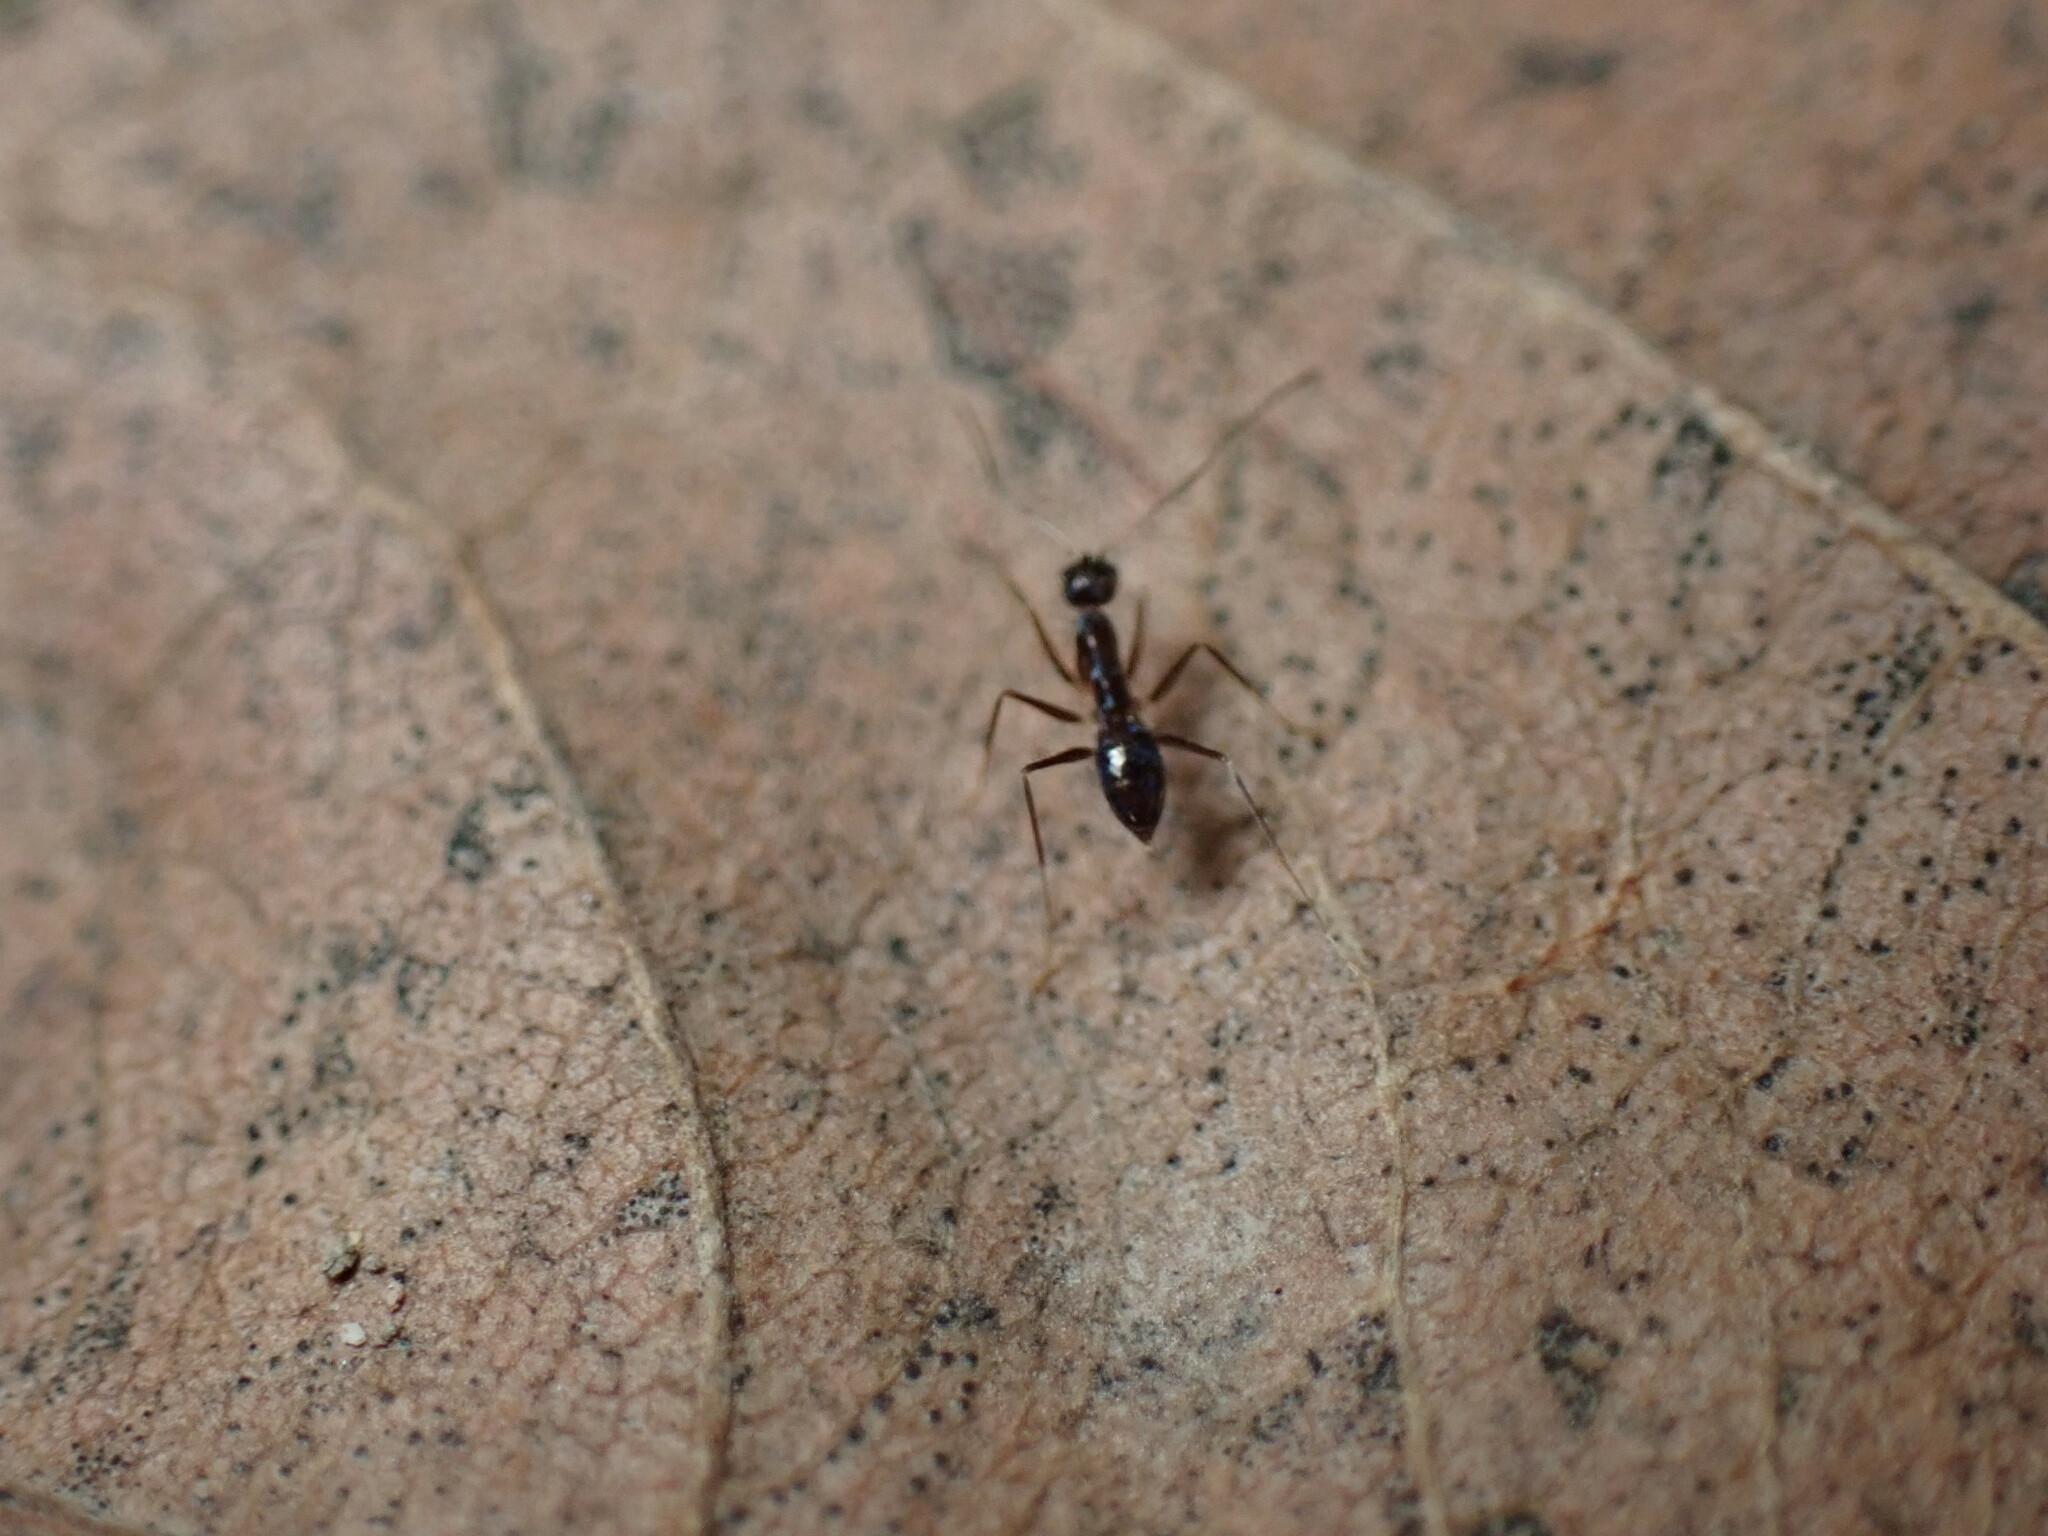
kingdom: Animalia
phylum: Arthropoda
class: Insecta
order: Hymenoptera
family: Formicidae
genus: Paratrechina
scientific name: Paratrechina longicornis
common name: Longhorned crazy ant
